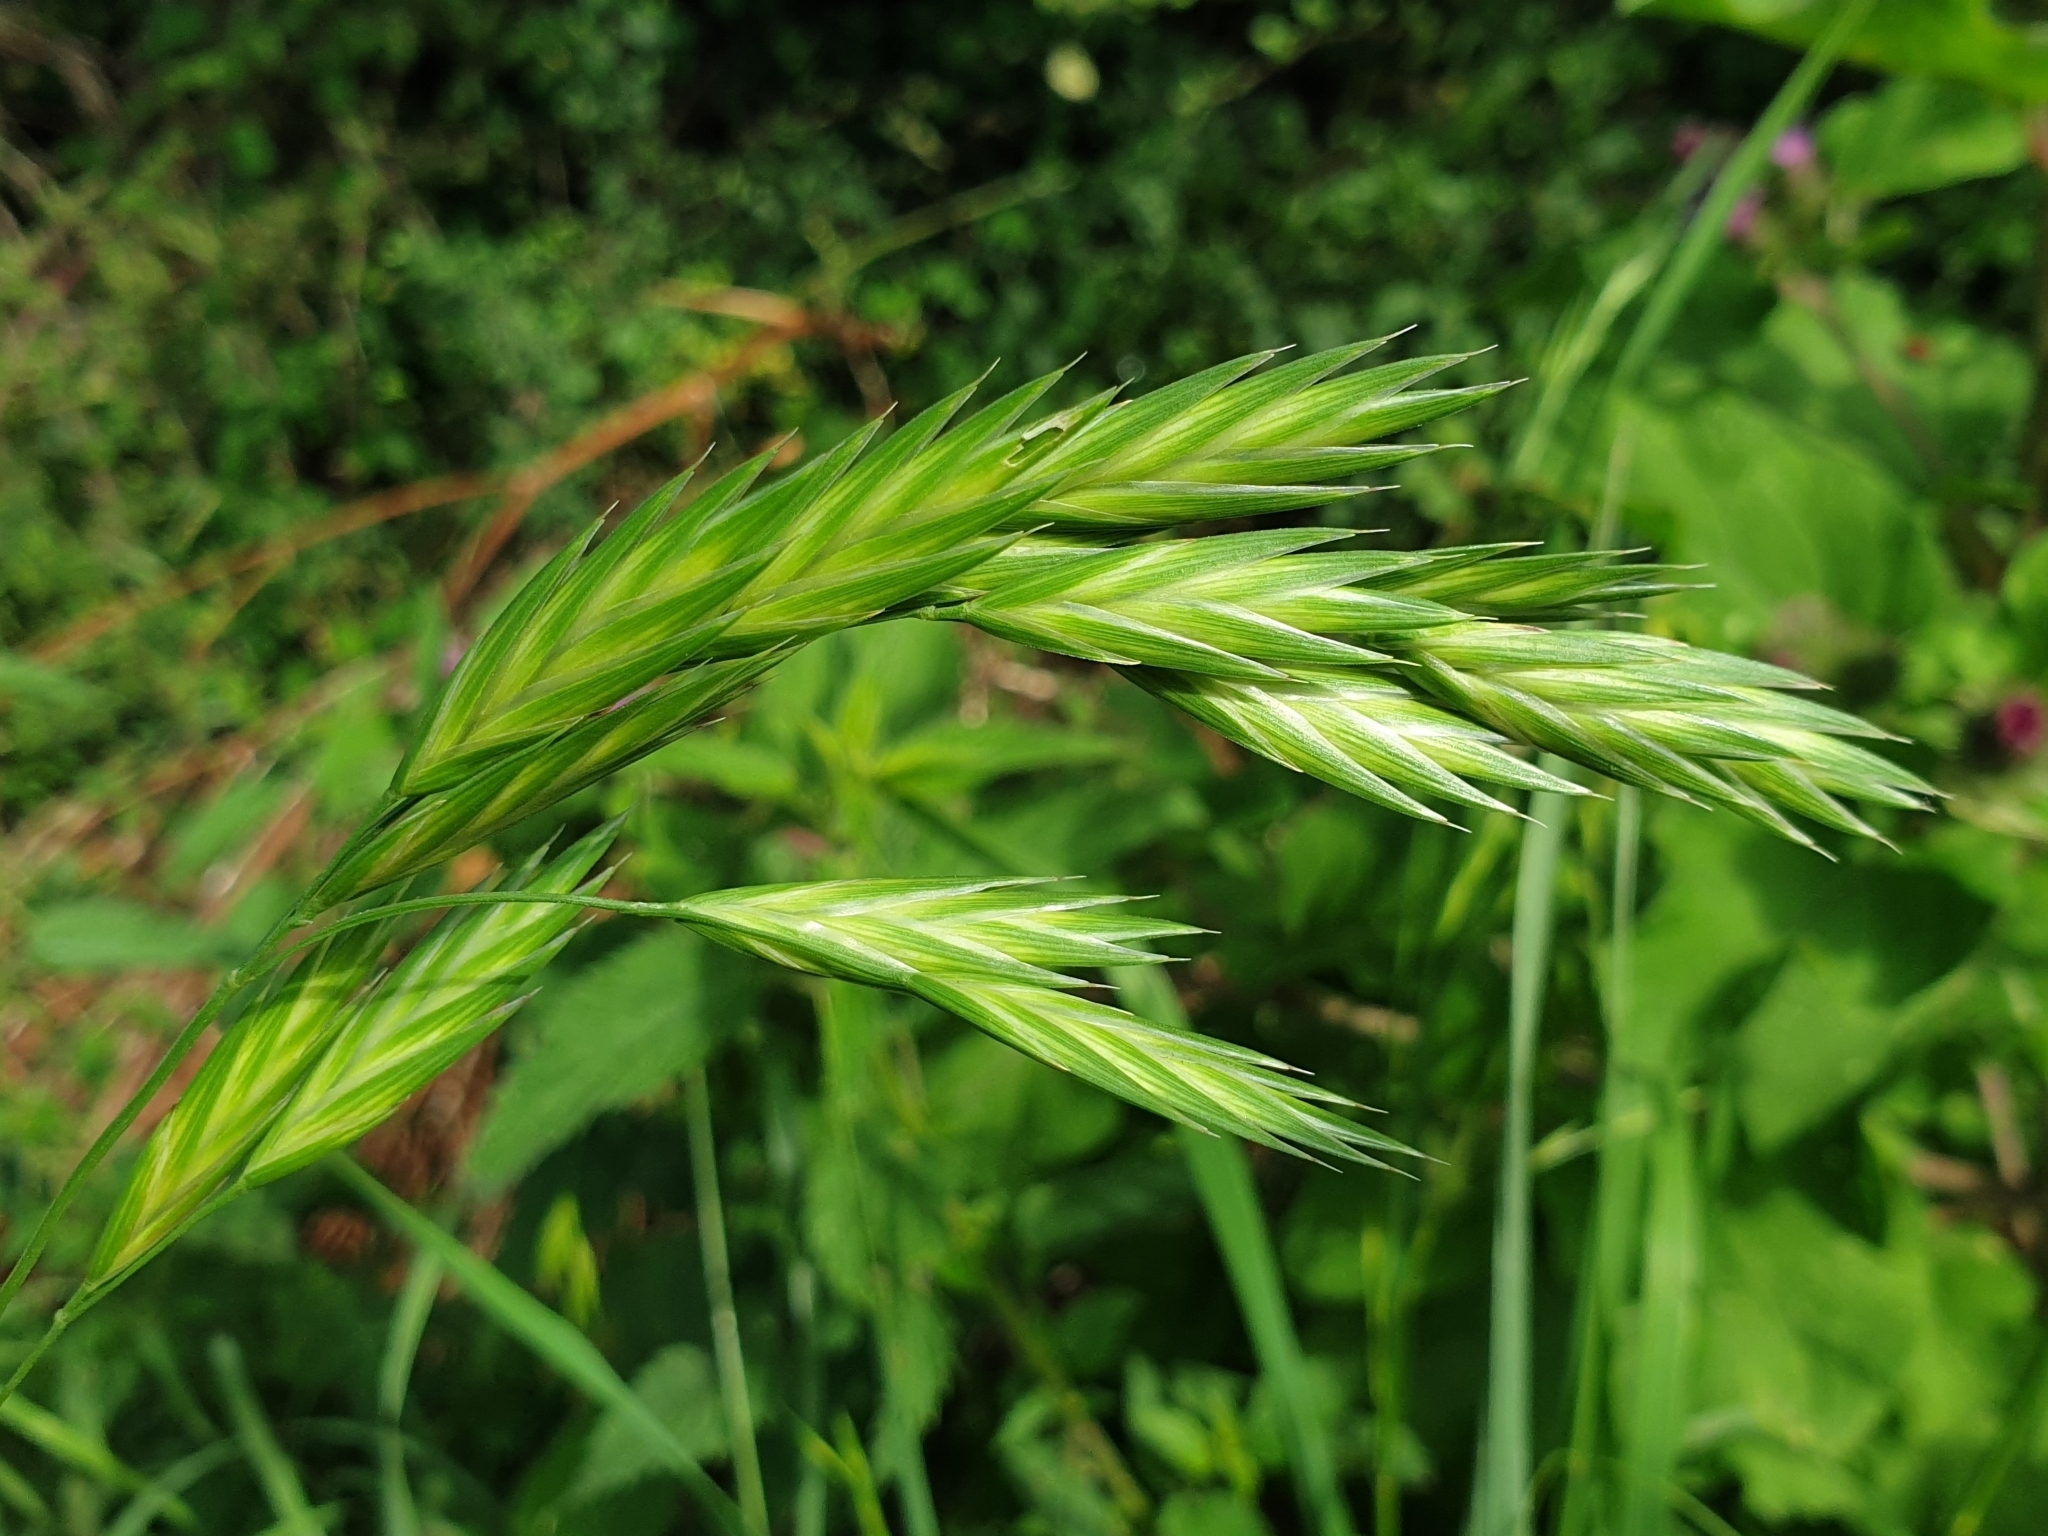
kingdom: Plantae
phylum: Tracheophyta
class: Liliopsida
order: Poales
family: Poaceae
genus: Bromus
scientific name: Bromus catharticus
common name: Rescuegrass
